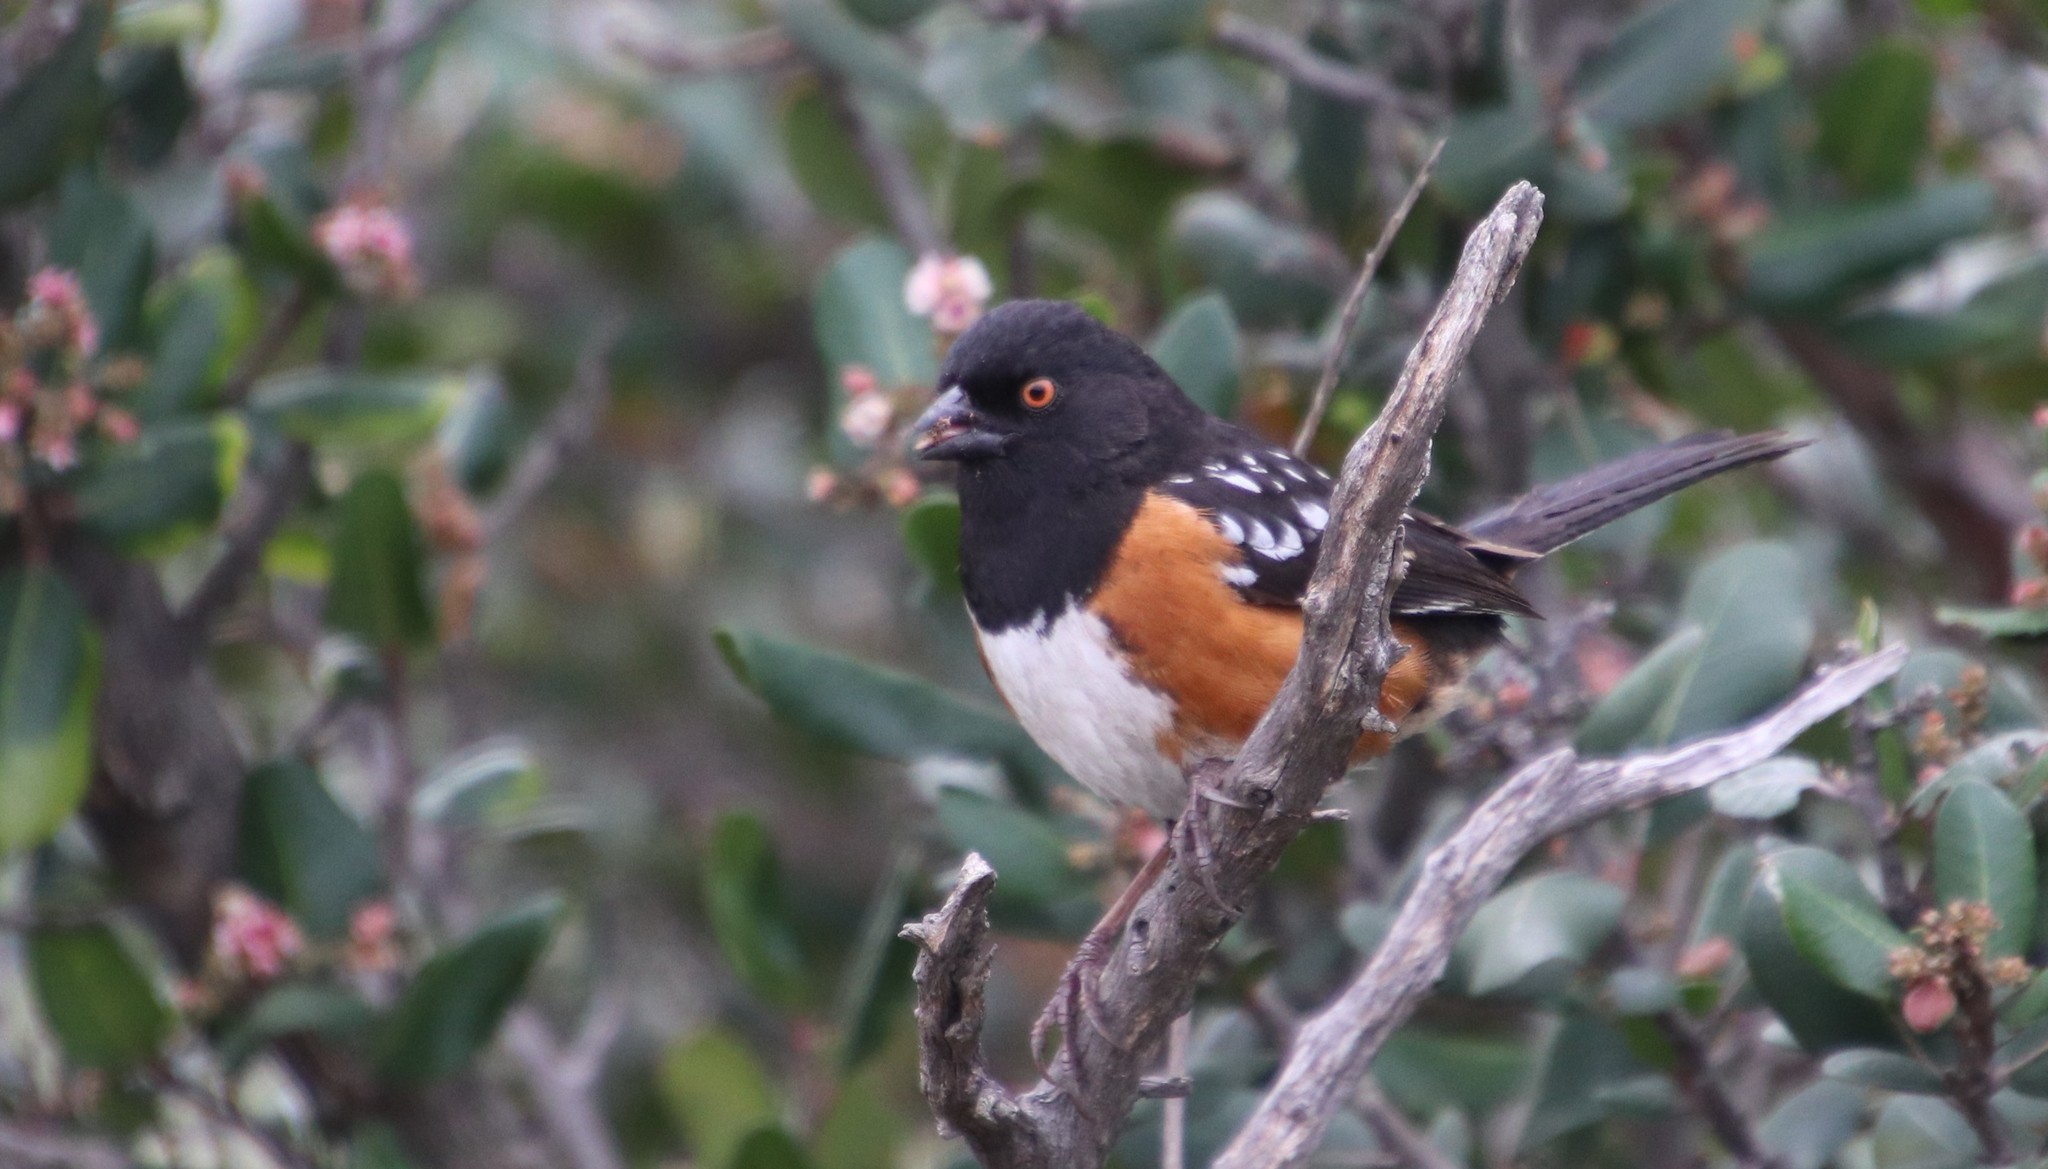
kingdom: Animalia
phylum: Chordata
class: Aves
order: Passeriformes
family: Passerellidae
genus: Pipilo
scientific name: Pipilo maculatus
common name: Spotted towhee
